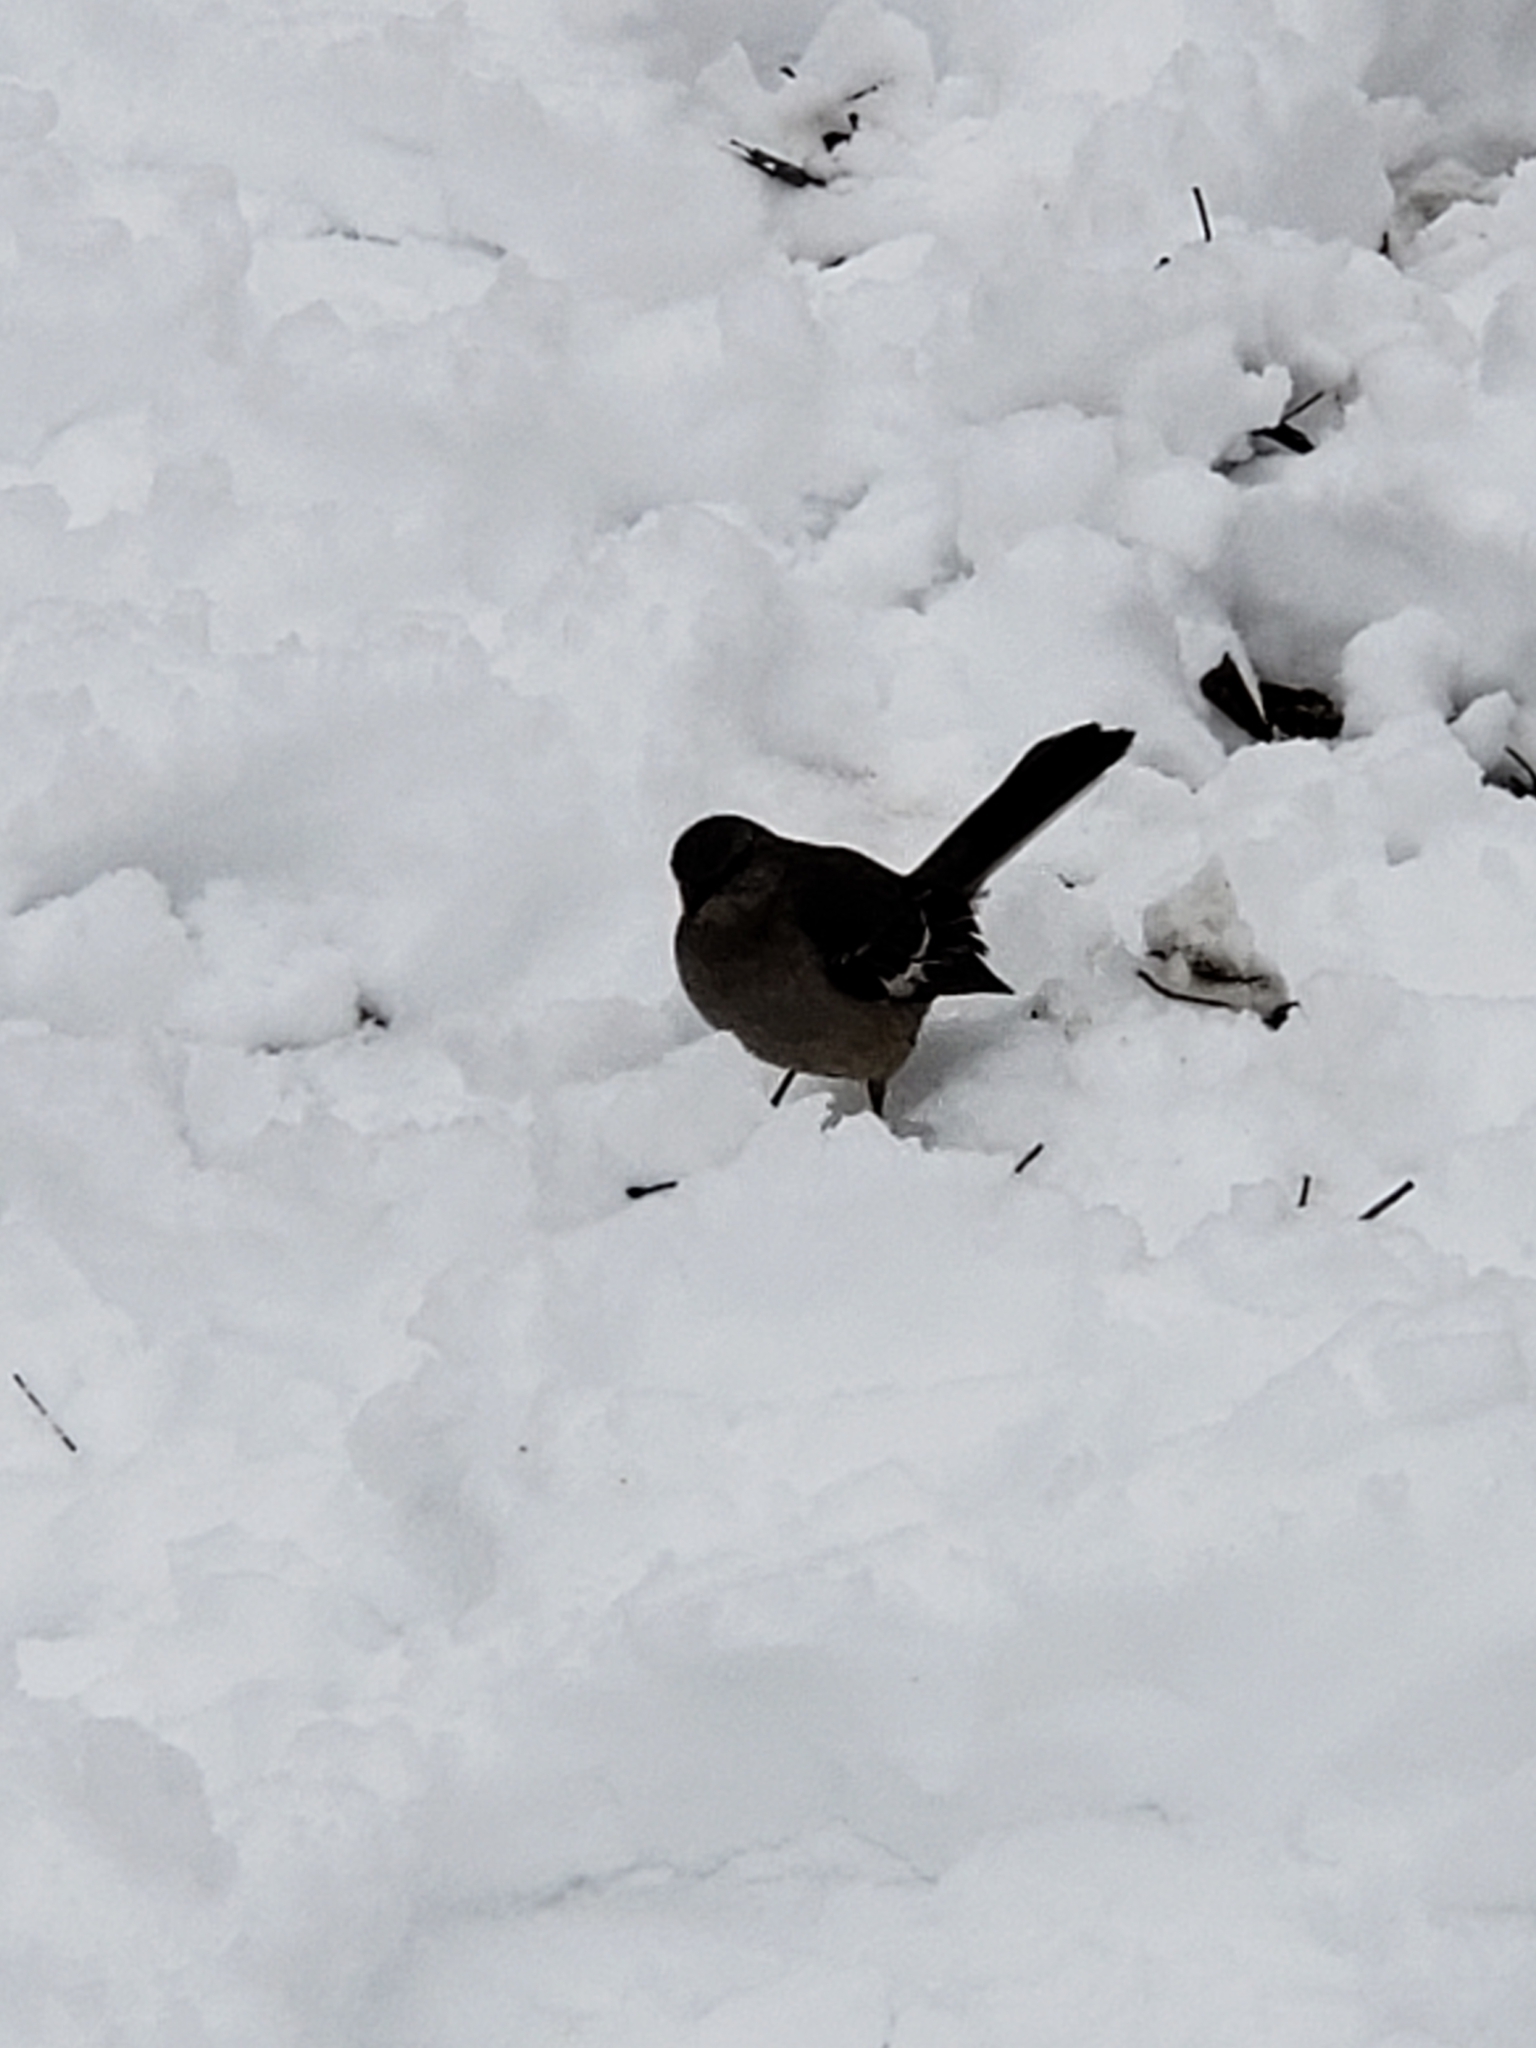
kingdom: Animalia
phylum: Chordata
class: Aves
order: Passeriformes
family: Mimidae
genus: Mimus
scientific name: Mimus polyglottos
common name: Northern mockingbird
